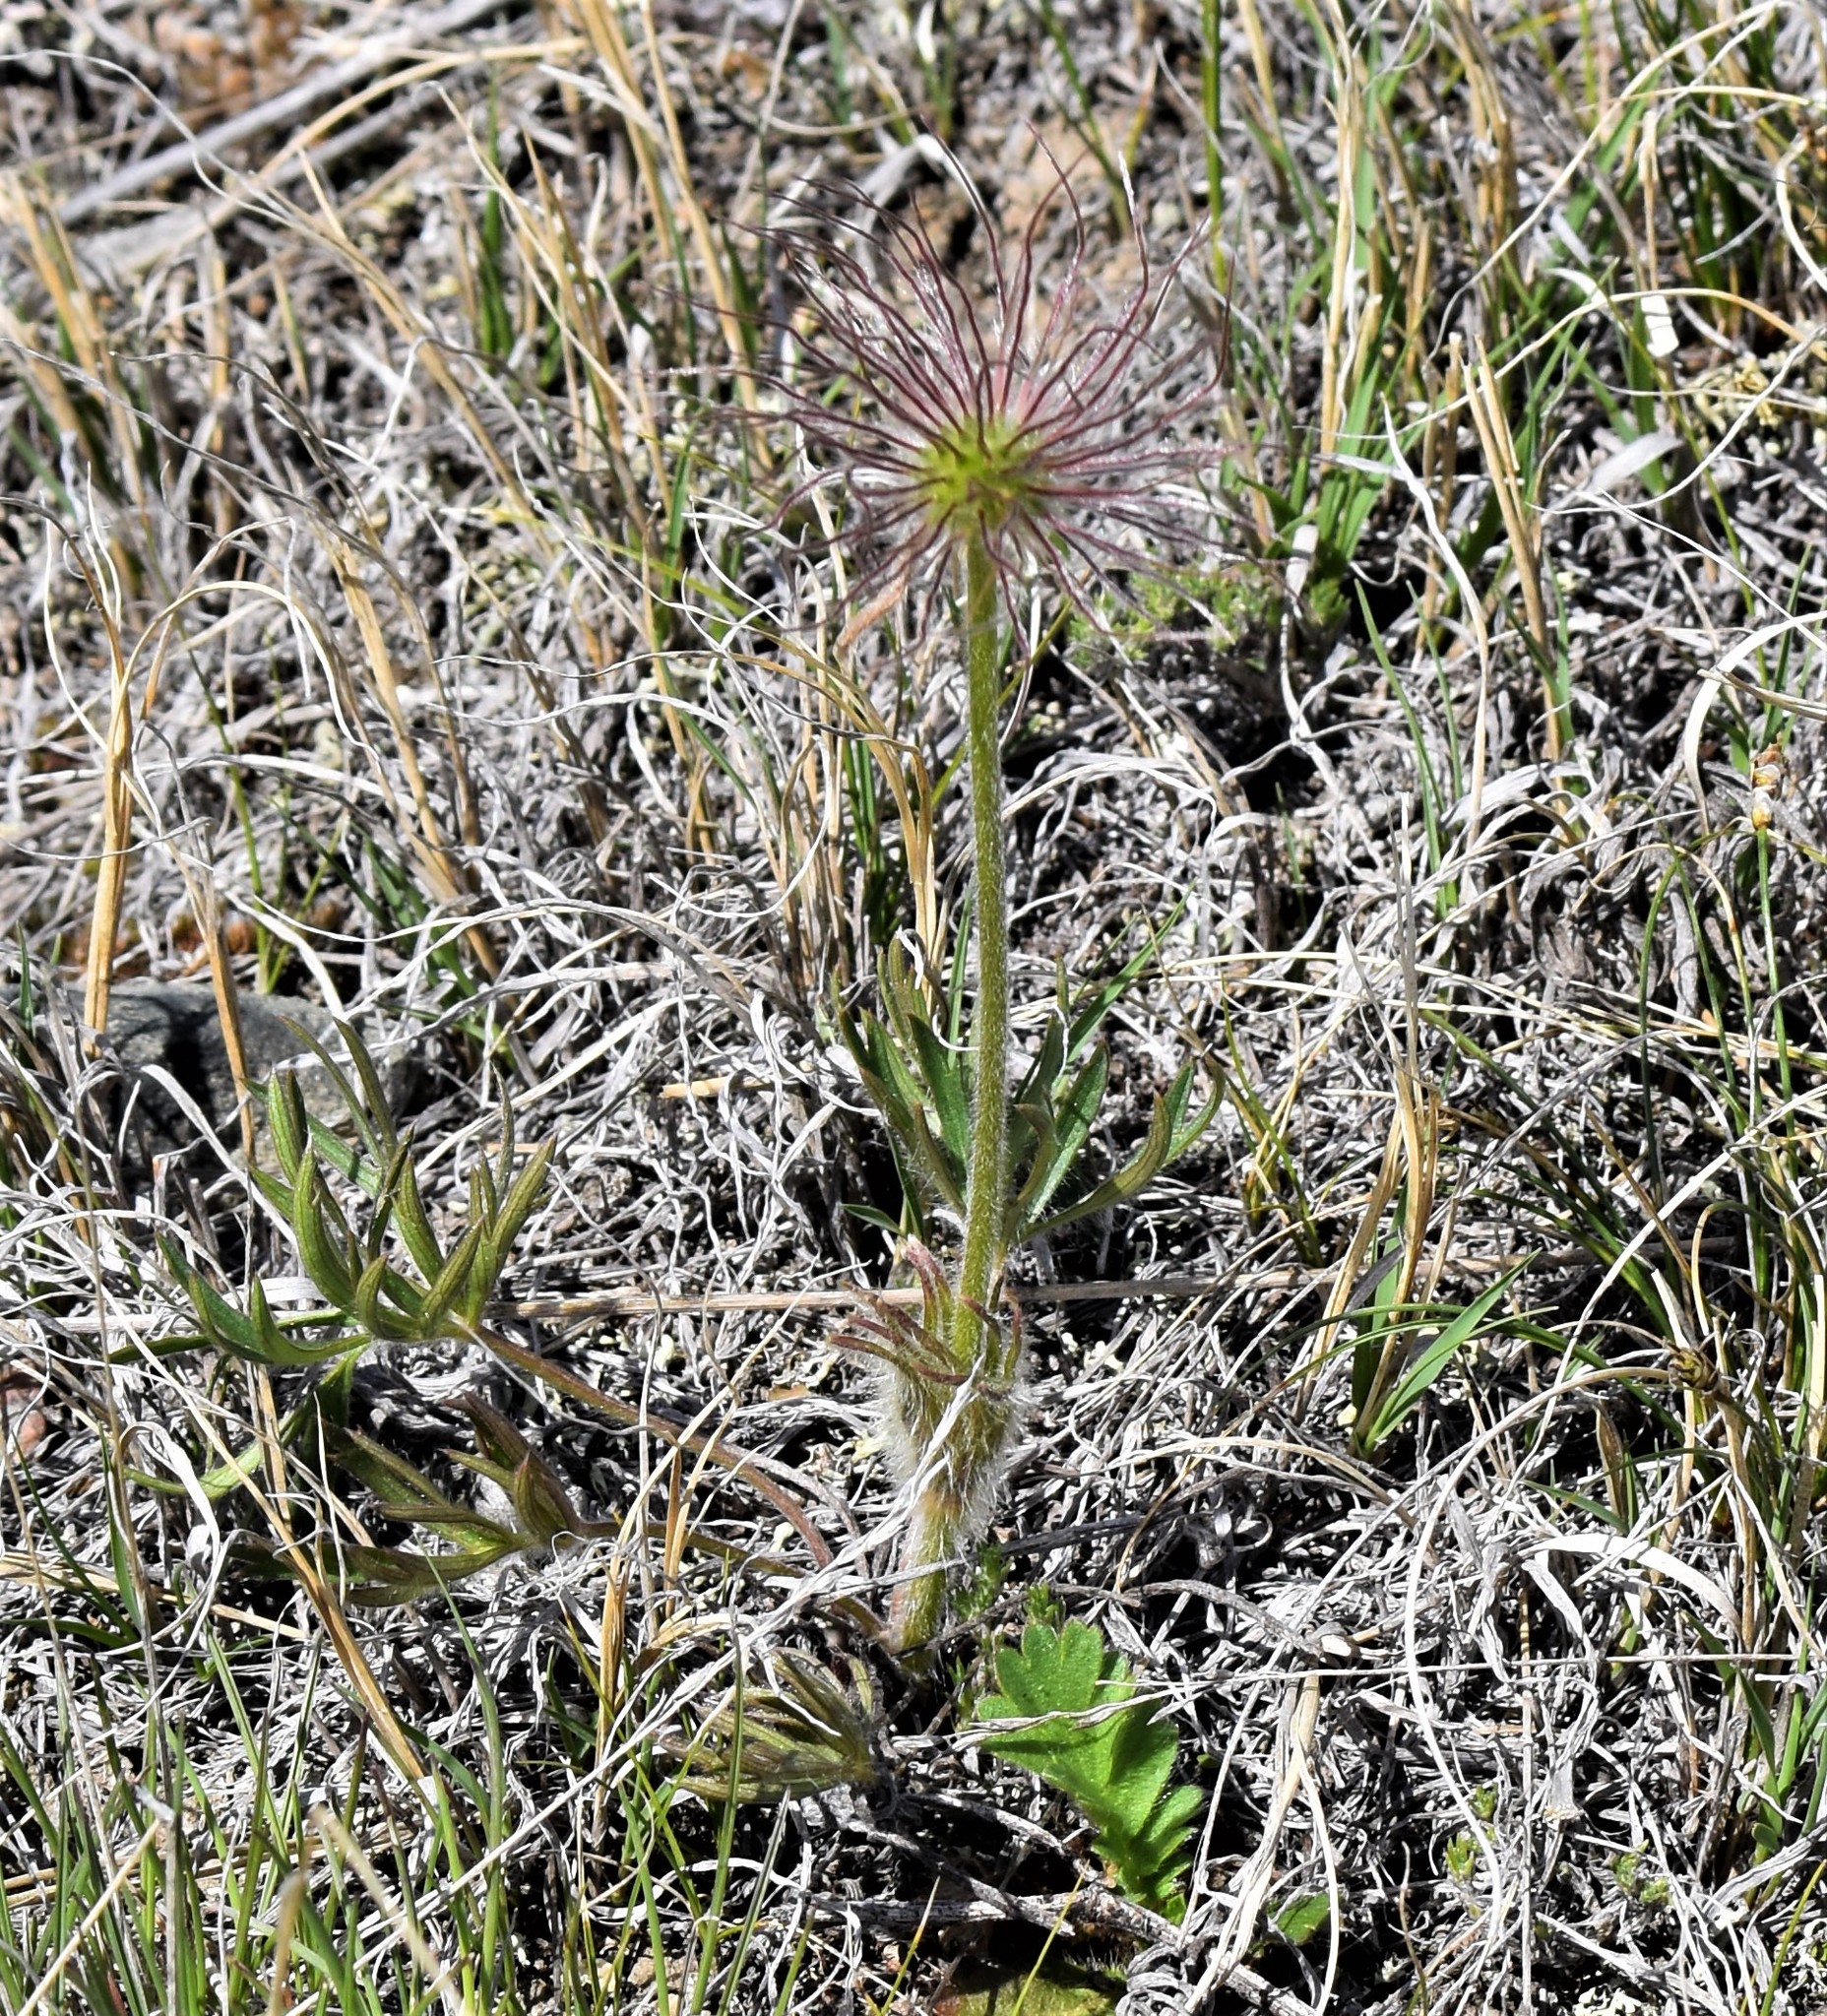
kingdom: Plantae
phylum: Tracheophyta
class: Magnoliopsida
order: Ranunculales
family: Ranunculaceae
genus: Pulsatilla
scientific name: Pulsatilla nuttalliana
